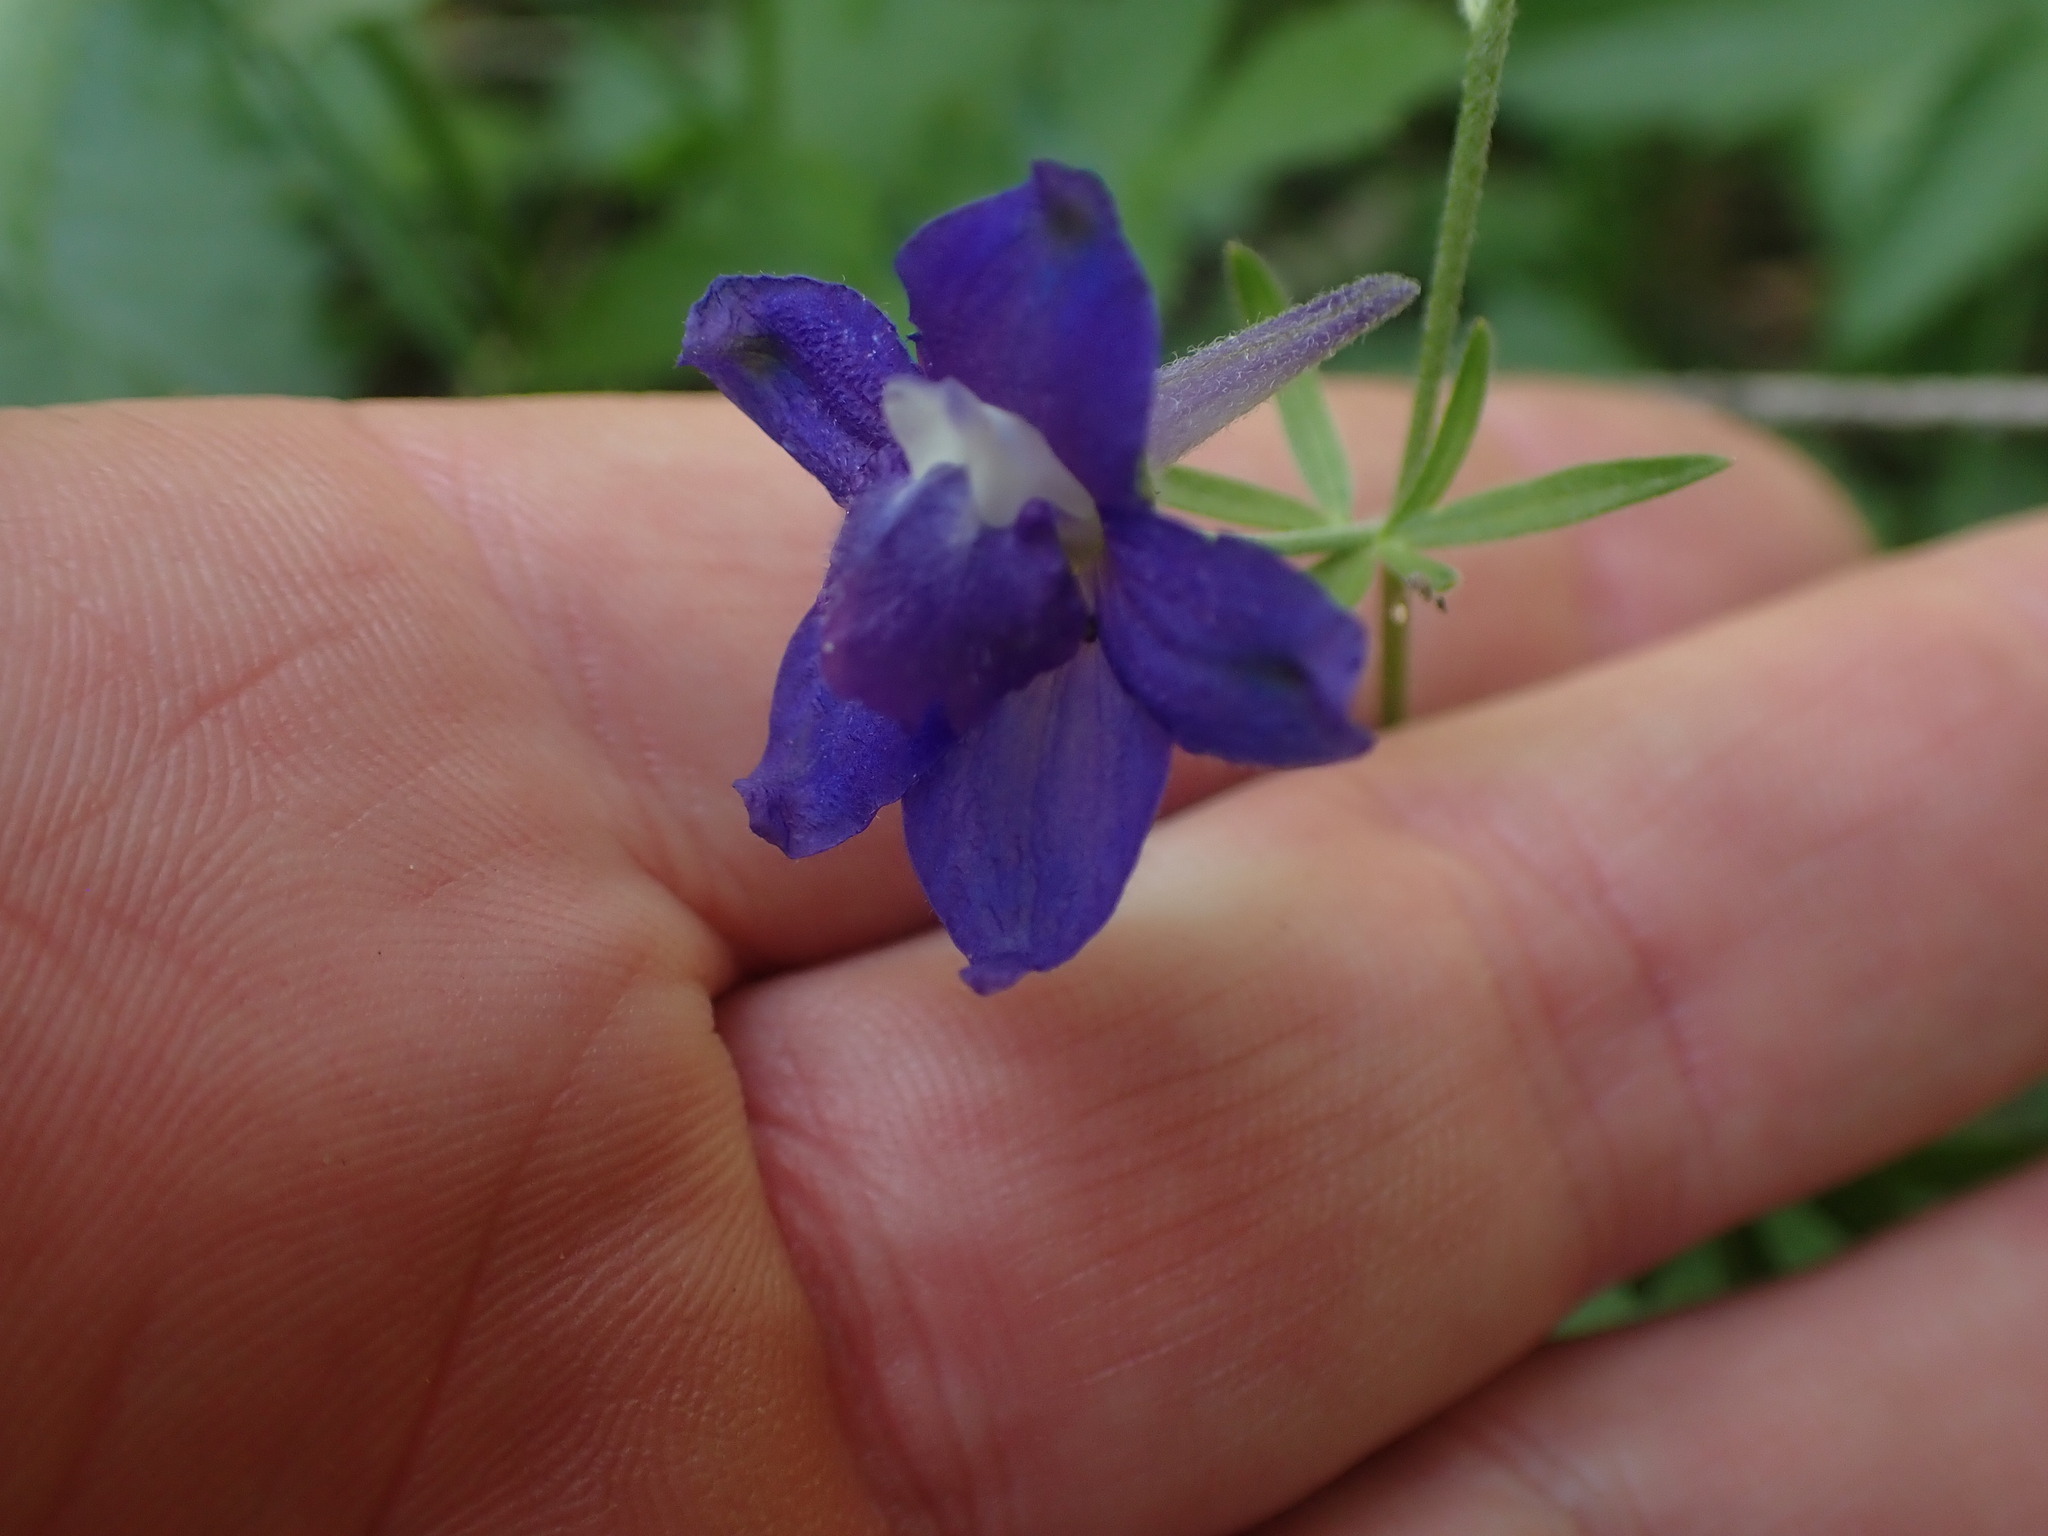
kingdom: Plantae
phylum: Tracheophyta
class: Magnoliopsida
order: Ranunculales
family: Ranunculaceae
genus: Delphinium
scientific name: Delphinium menziesii
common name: Menzies's larkspur
